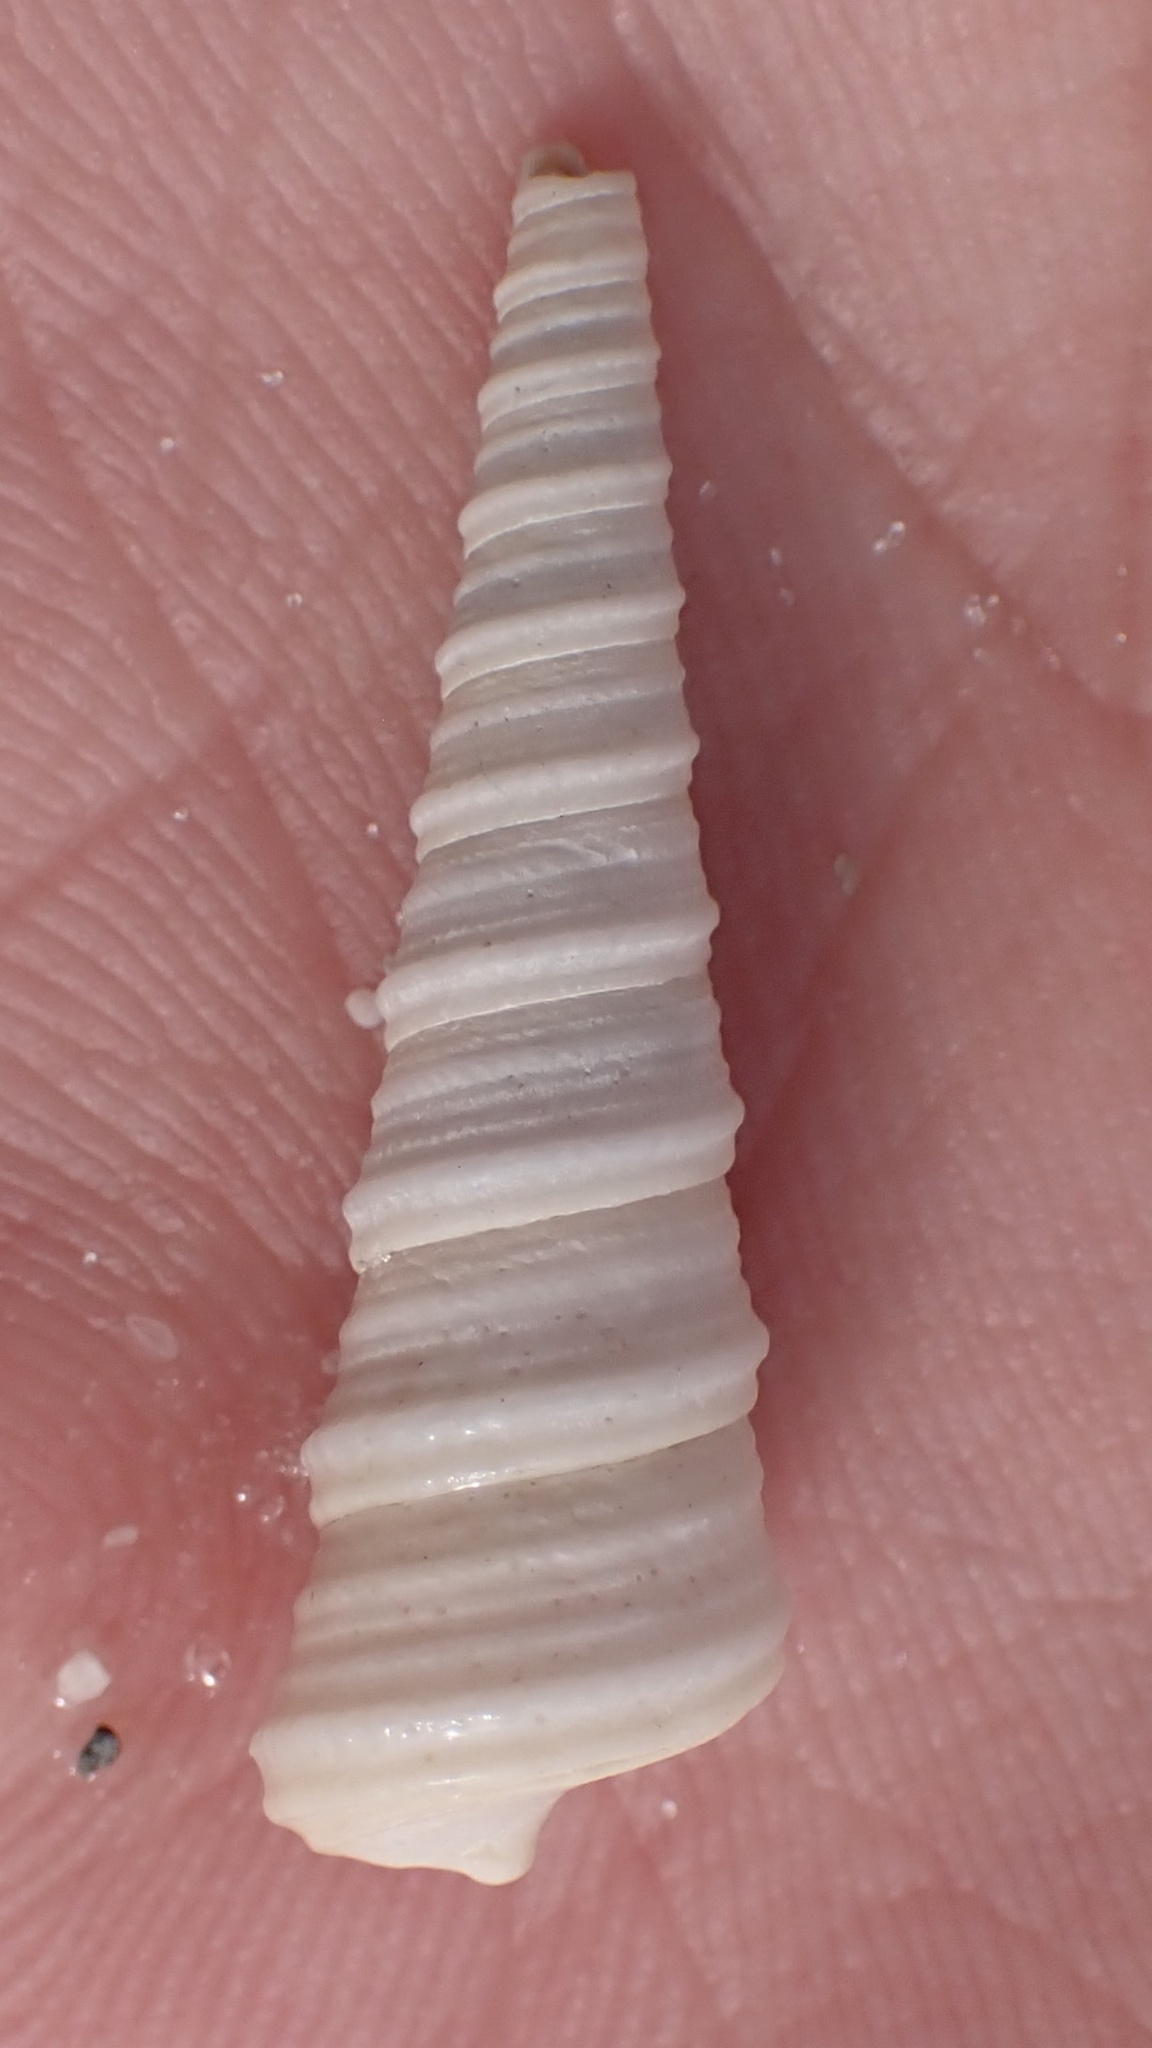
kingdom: Animalia
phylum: Mollusca
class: Gastropoda
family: Turritellidae
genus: Turritella
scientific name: Turritella acropora
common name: Boring turretsnail
